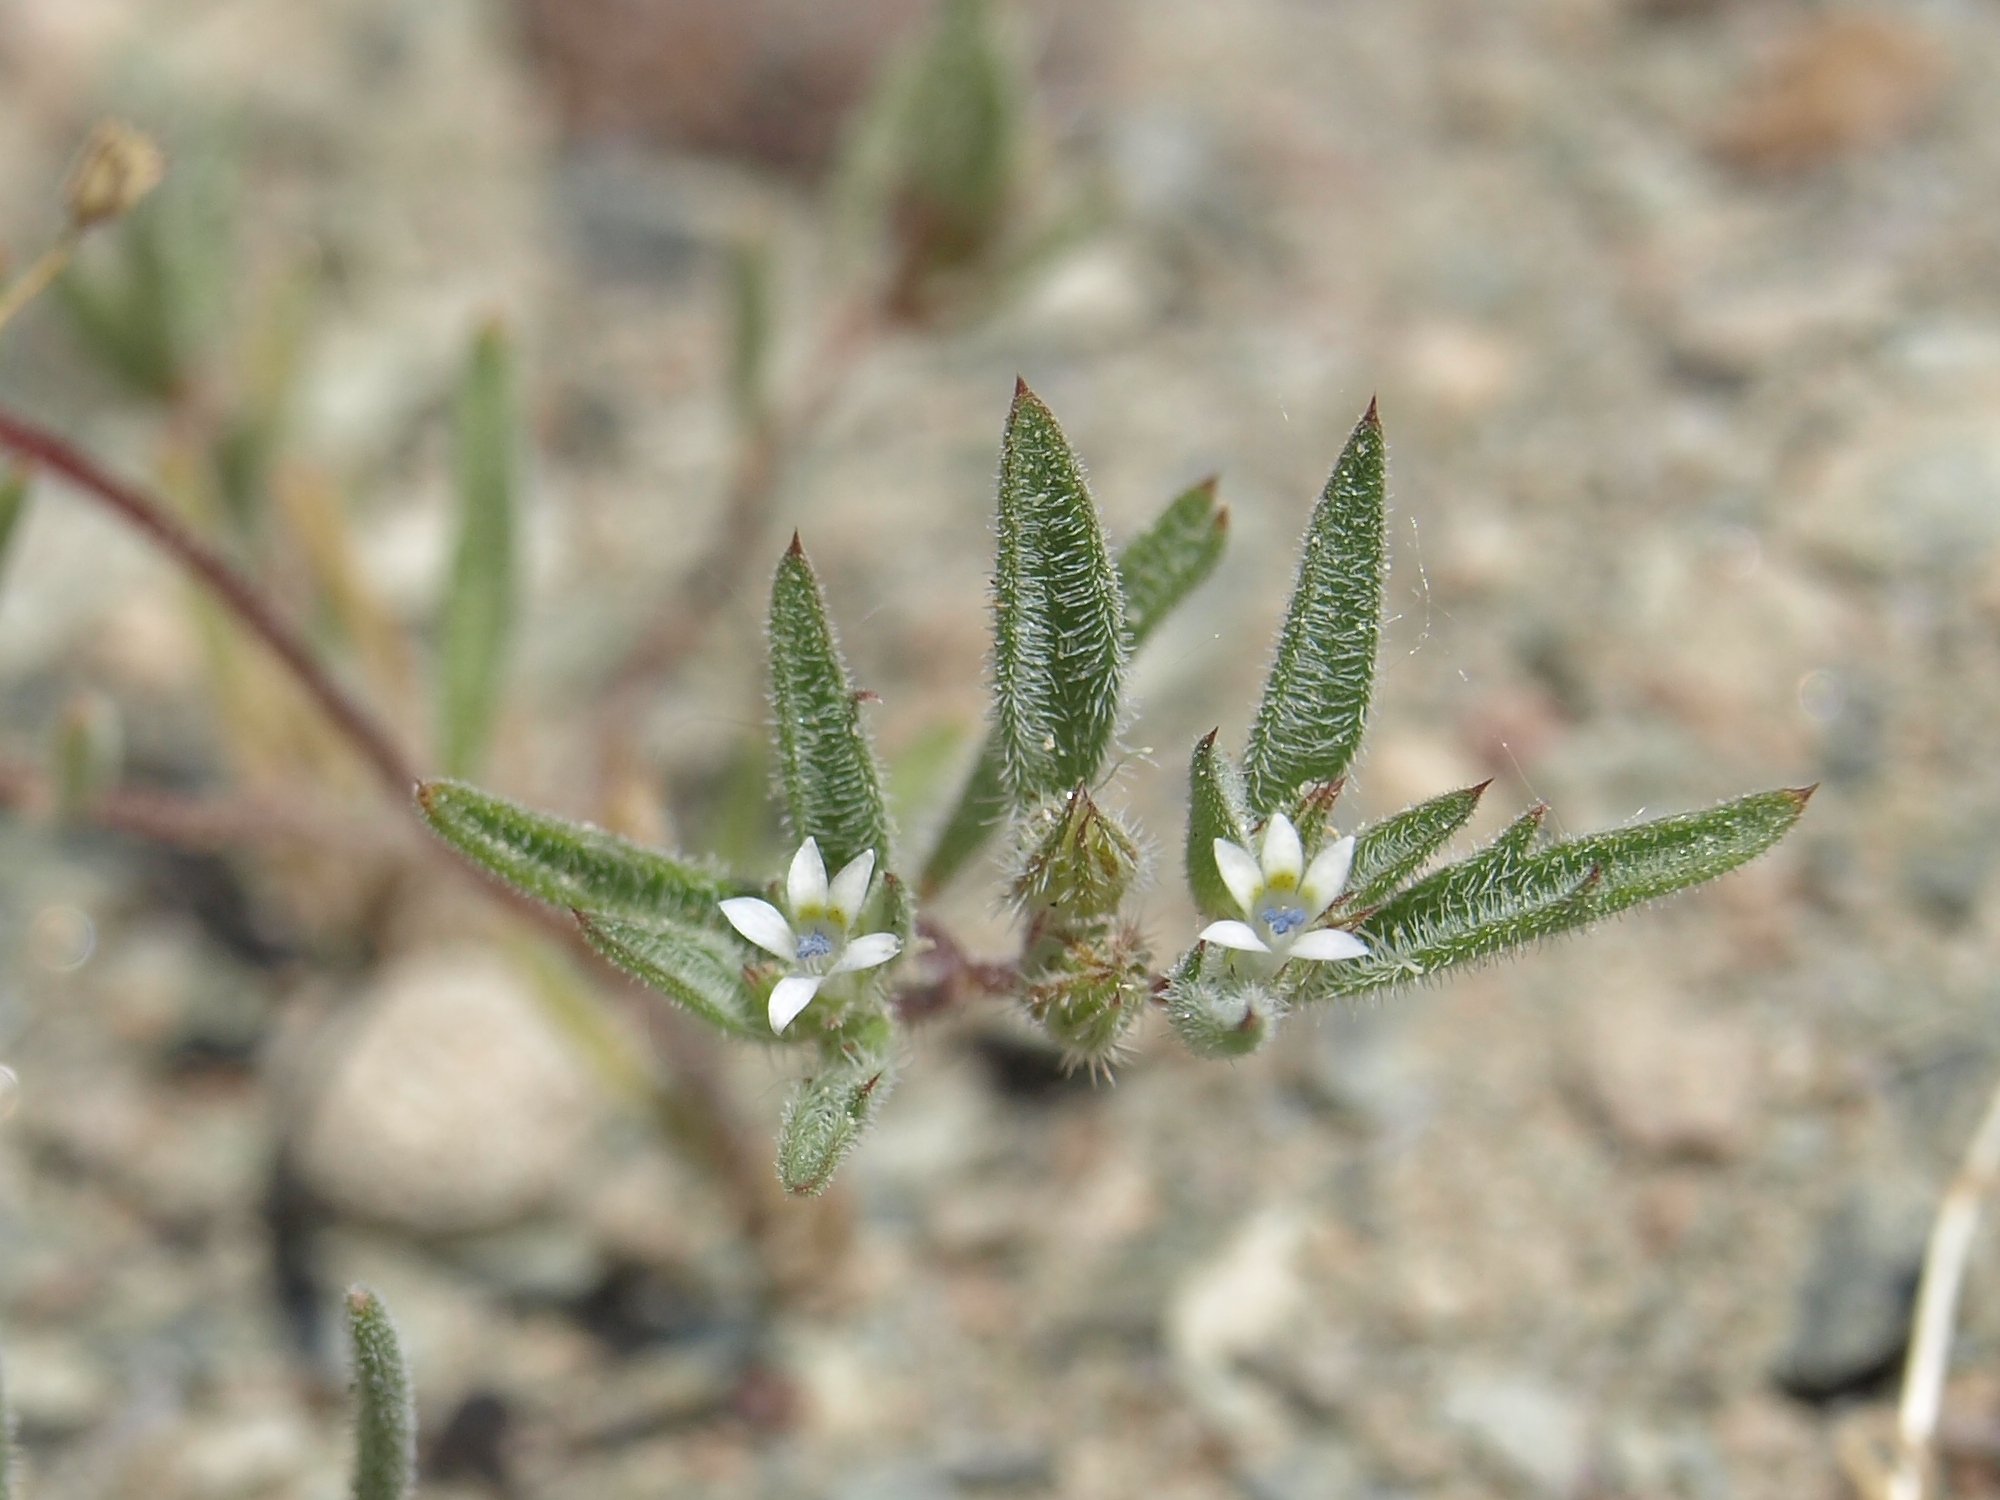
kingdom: Plantae
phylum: Tracheophyta
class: Magnoliopsida
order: Ericales
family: Polemoniaceae
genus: Loeseliastrum
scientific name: Loeseliastrum depressum
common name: Depressed ipomopsis
